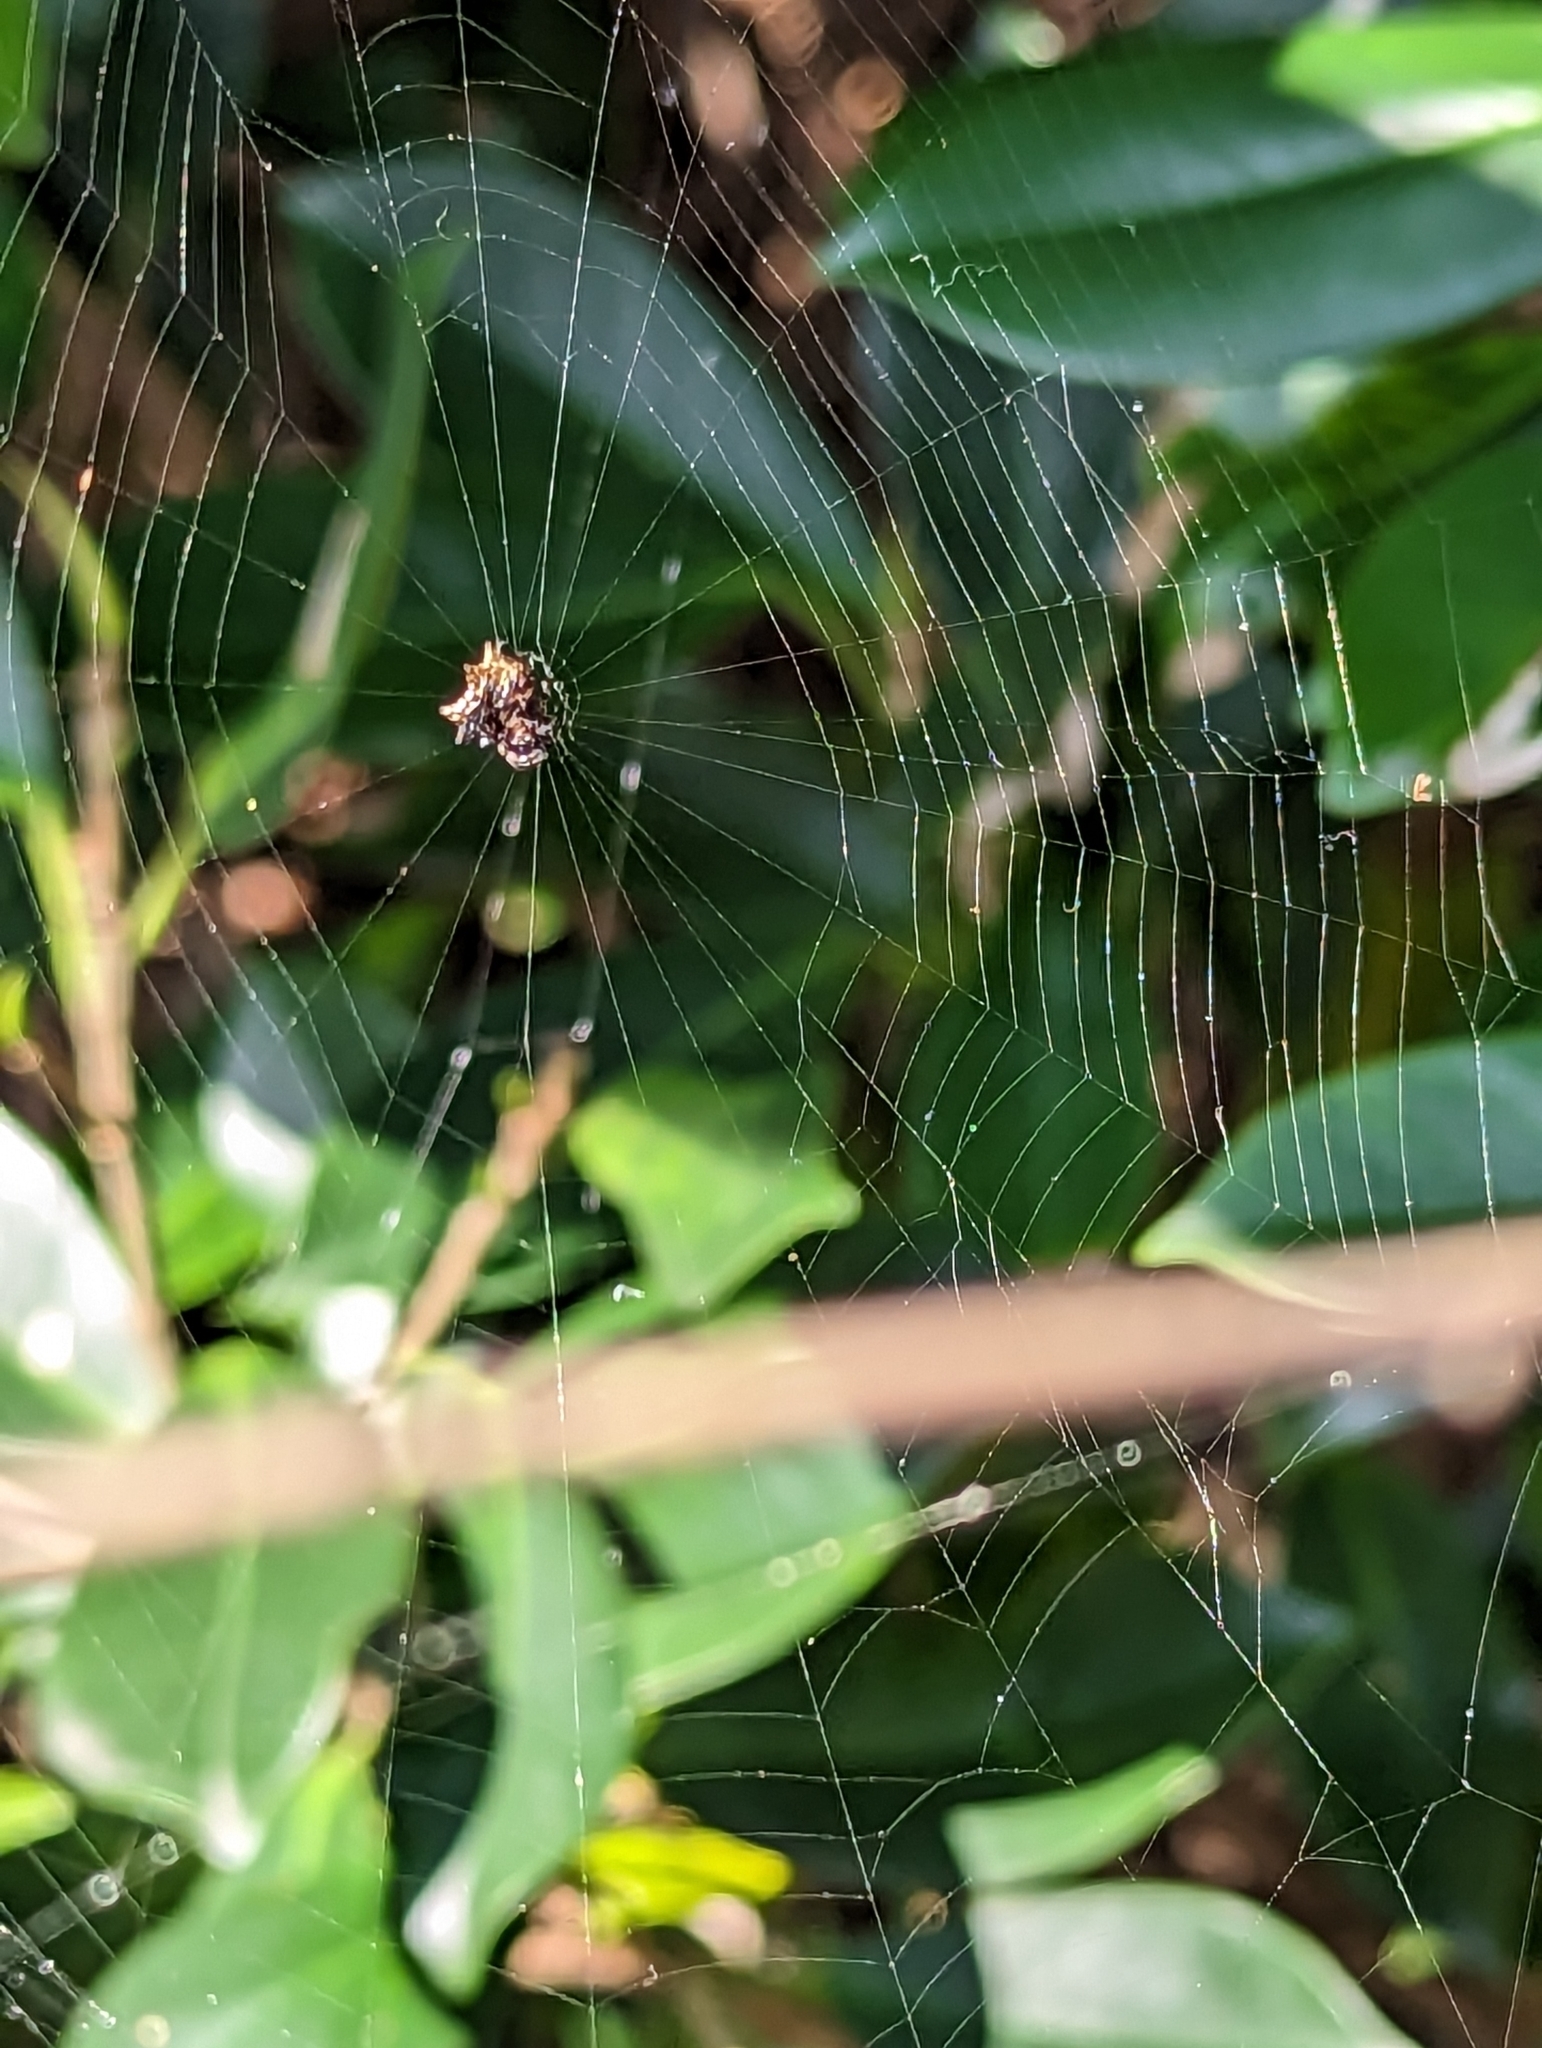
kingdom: Animalia
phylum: Arthropoda
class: Arachnida
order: Araneae
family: Araneidae
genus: Thelacantha
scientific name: Thelacantha brevispina
